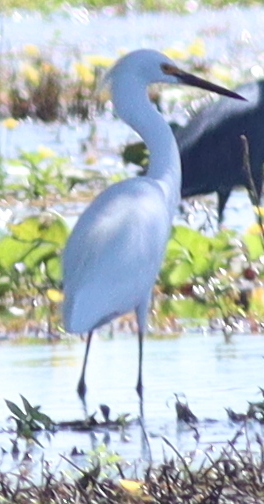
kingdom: Animalia
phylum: Chordata
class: Aves
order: Pelecaniformes
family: Ardeidae
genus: Egretta
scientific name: Egretta thula
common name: Snowy egret
